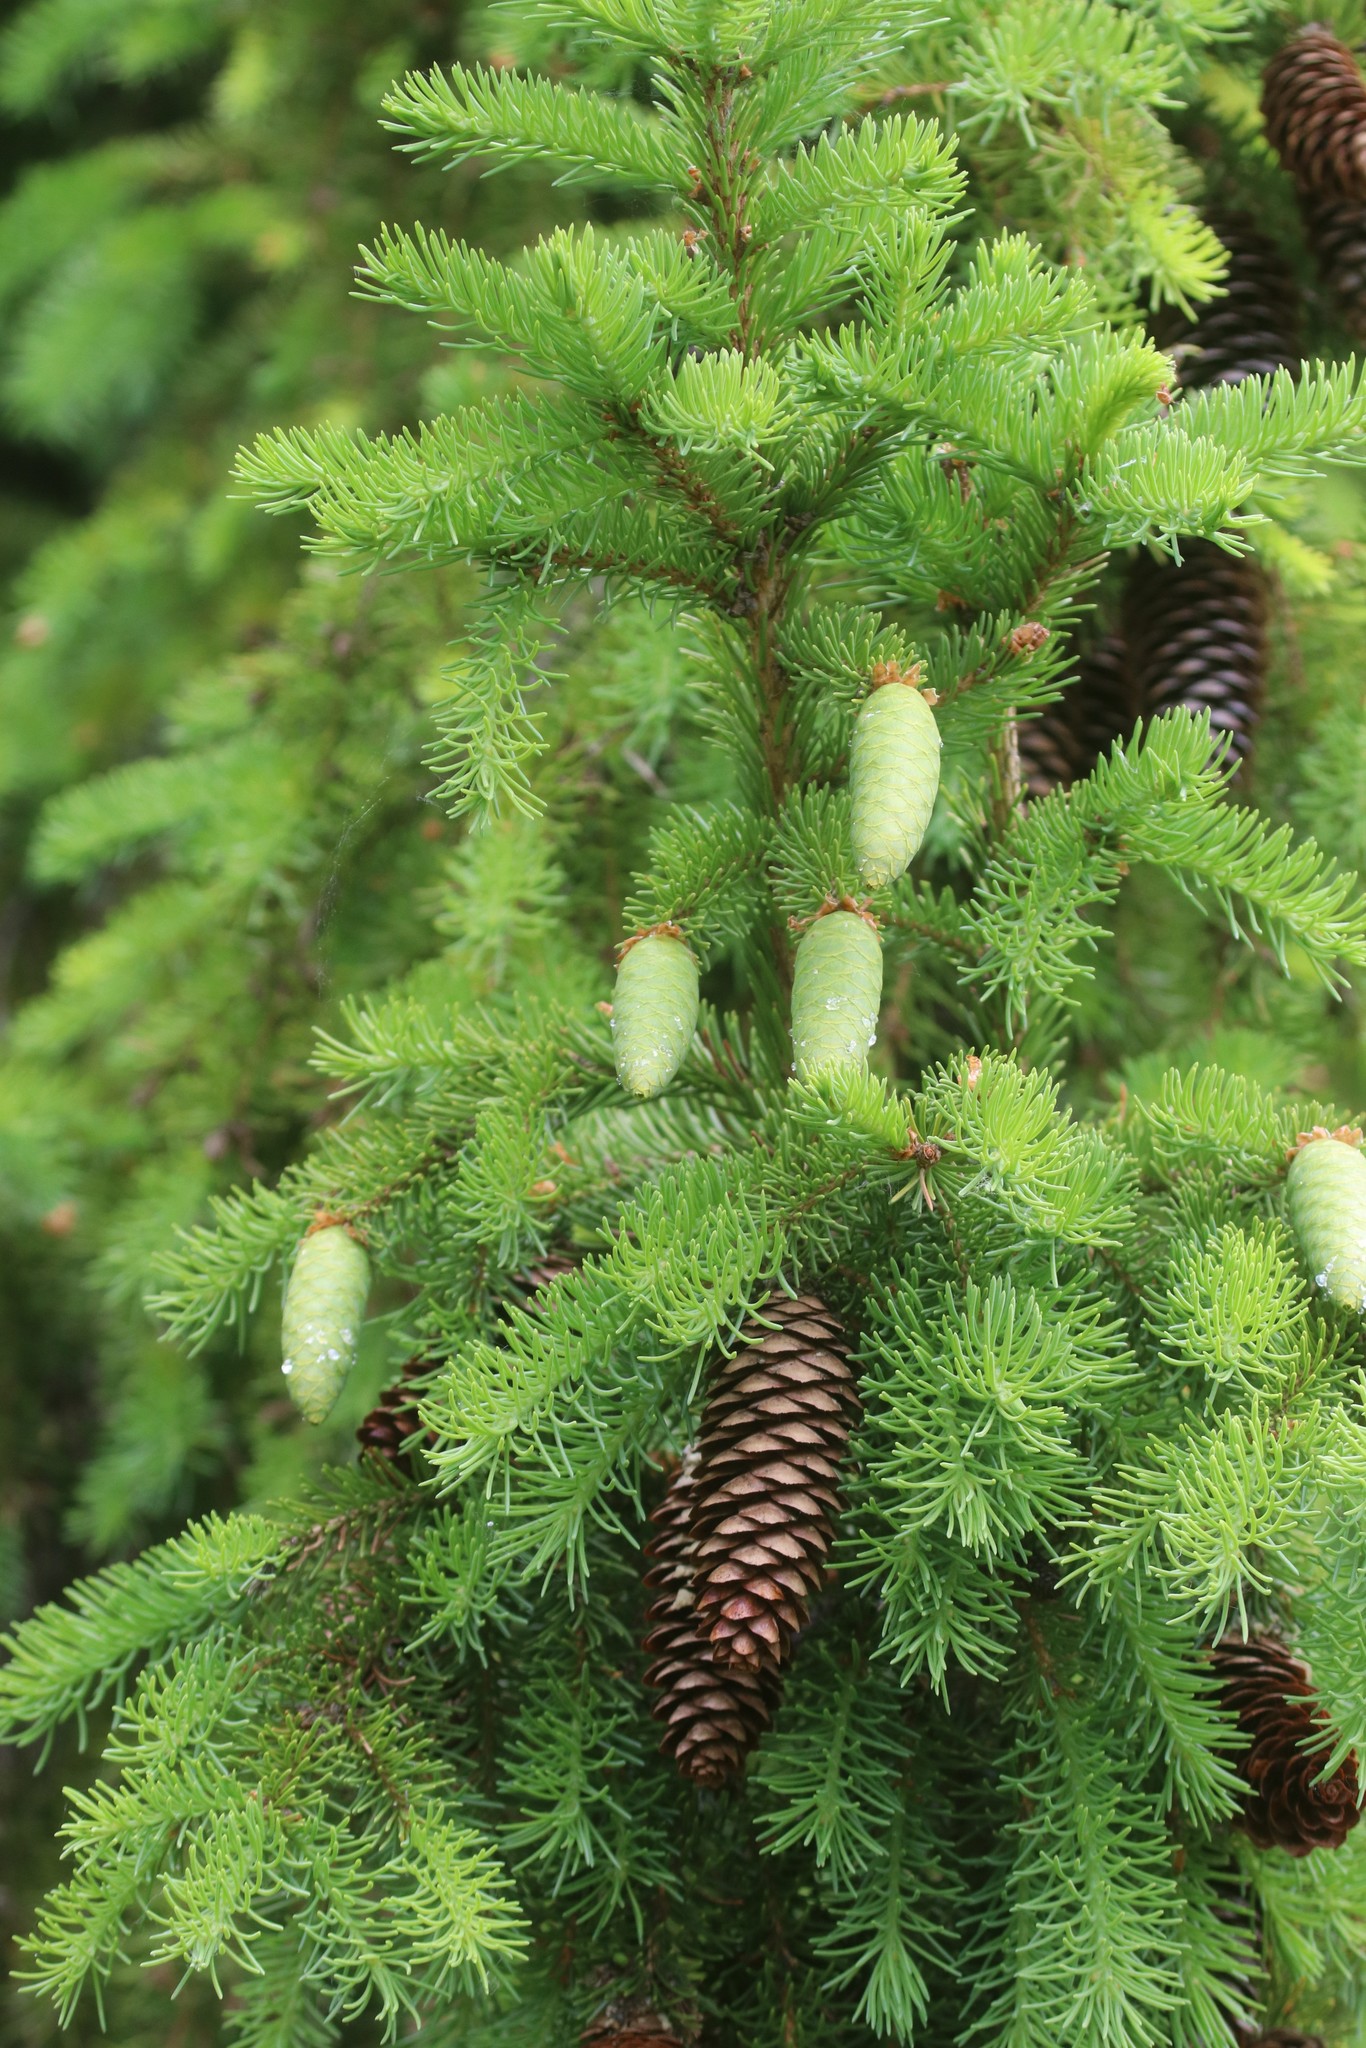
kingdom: Plantae
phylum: Tracheophyta
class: Pinopsida
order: Pinales
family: Pinaceae
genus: Picea
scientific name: Picea fennica
